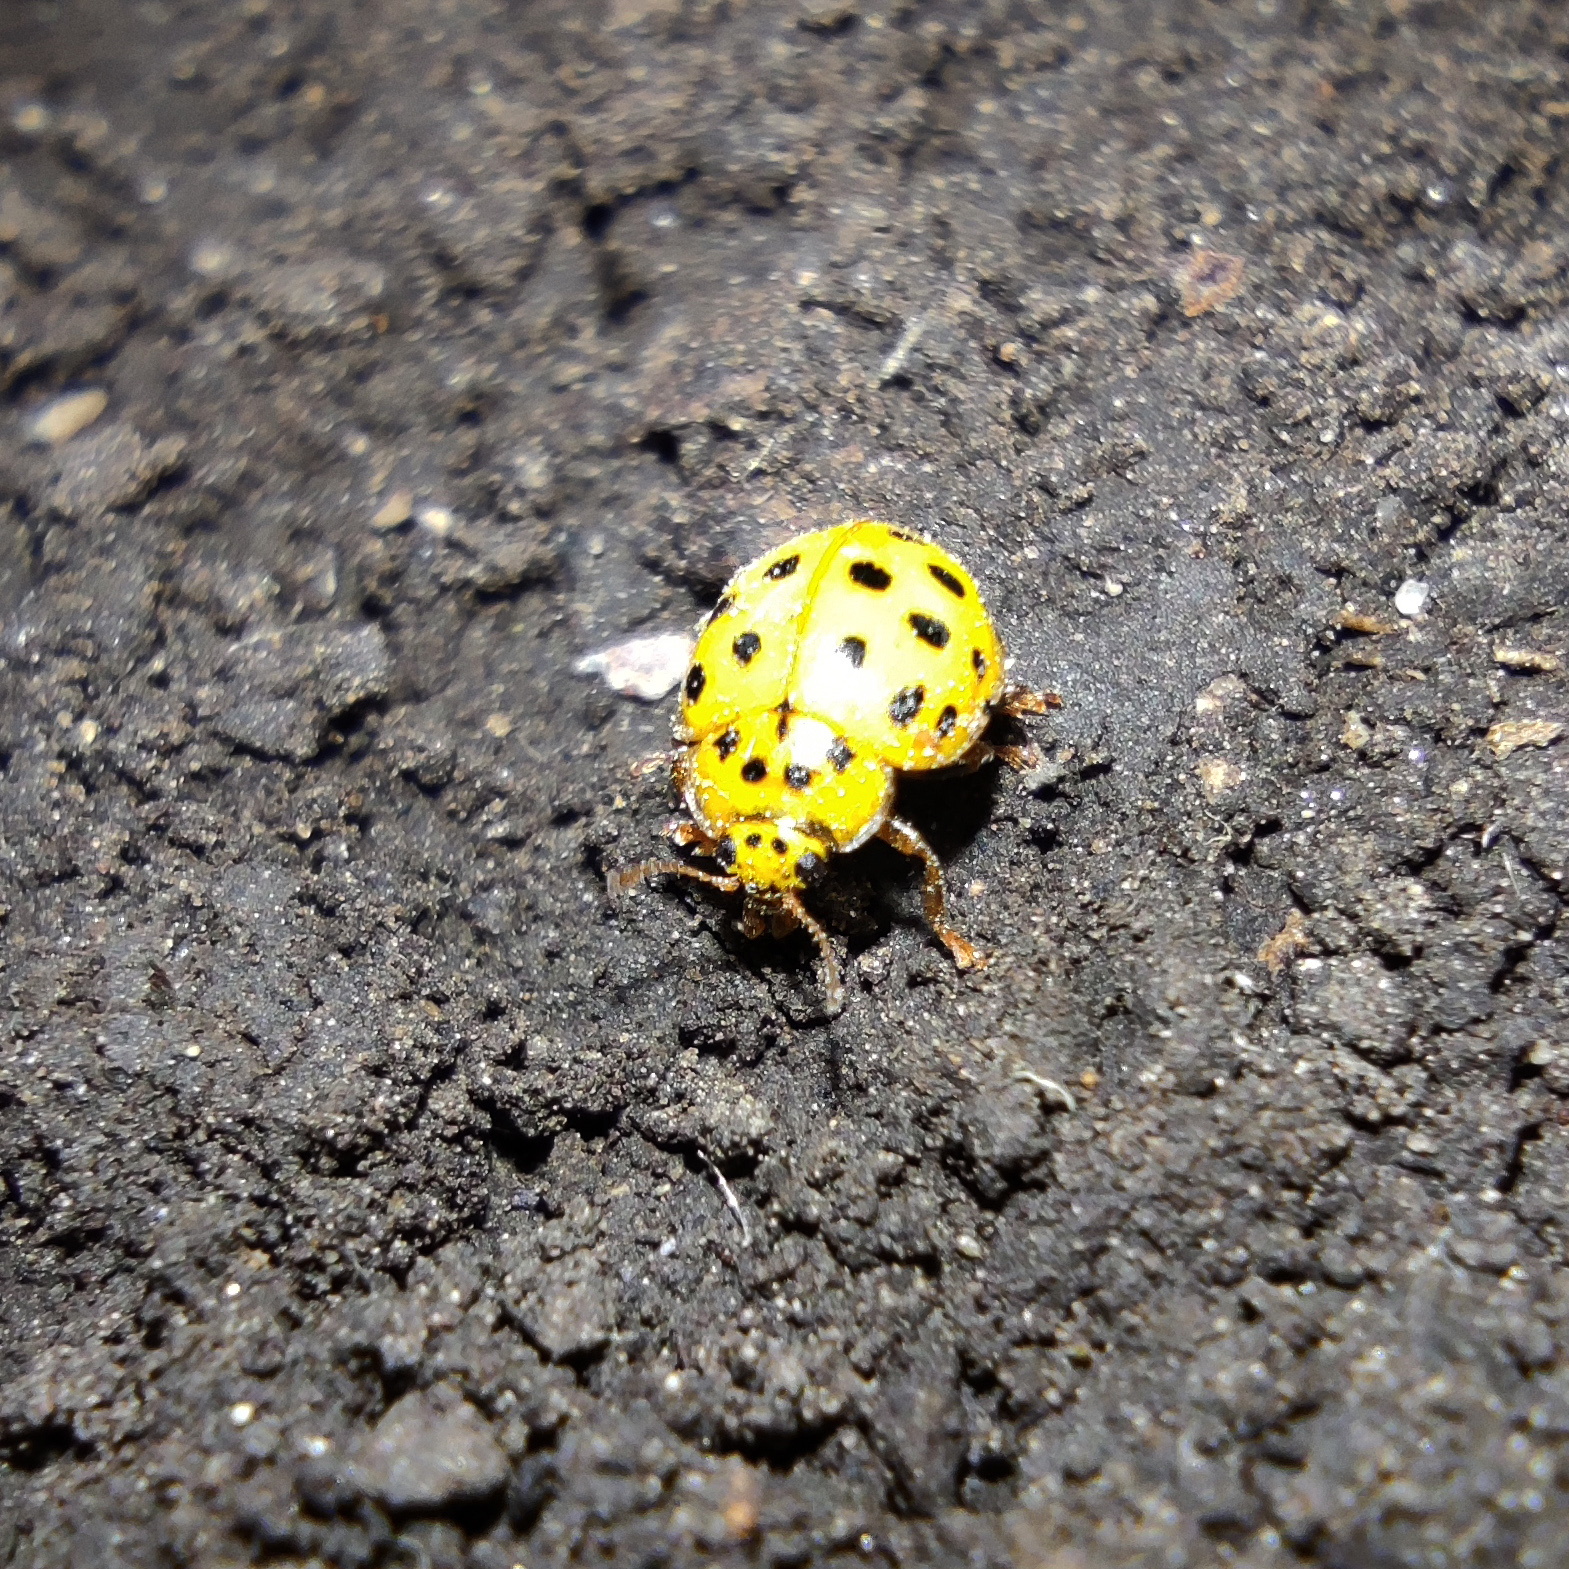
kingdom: Animalia
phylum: Arthropoda
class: Insecta
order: Coleoptera
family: Coccinellidae
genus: Psyllobora
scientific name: Psyllobora vigintiduopunctata
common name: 22-spot ladybird
